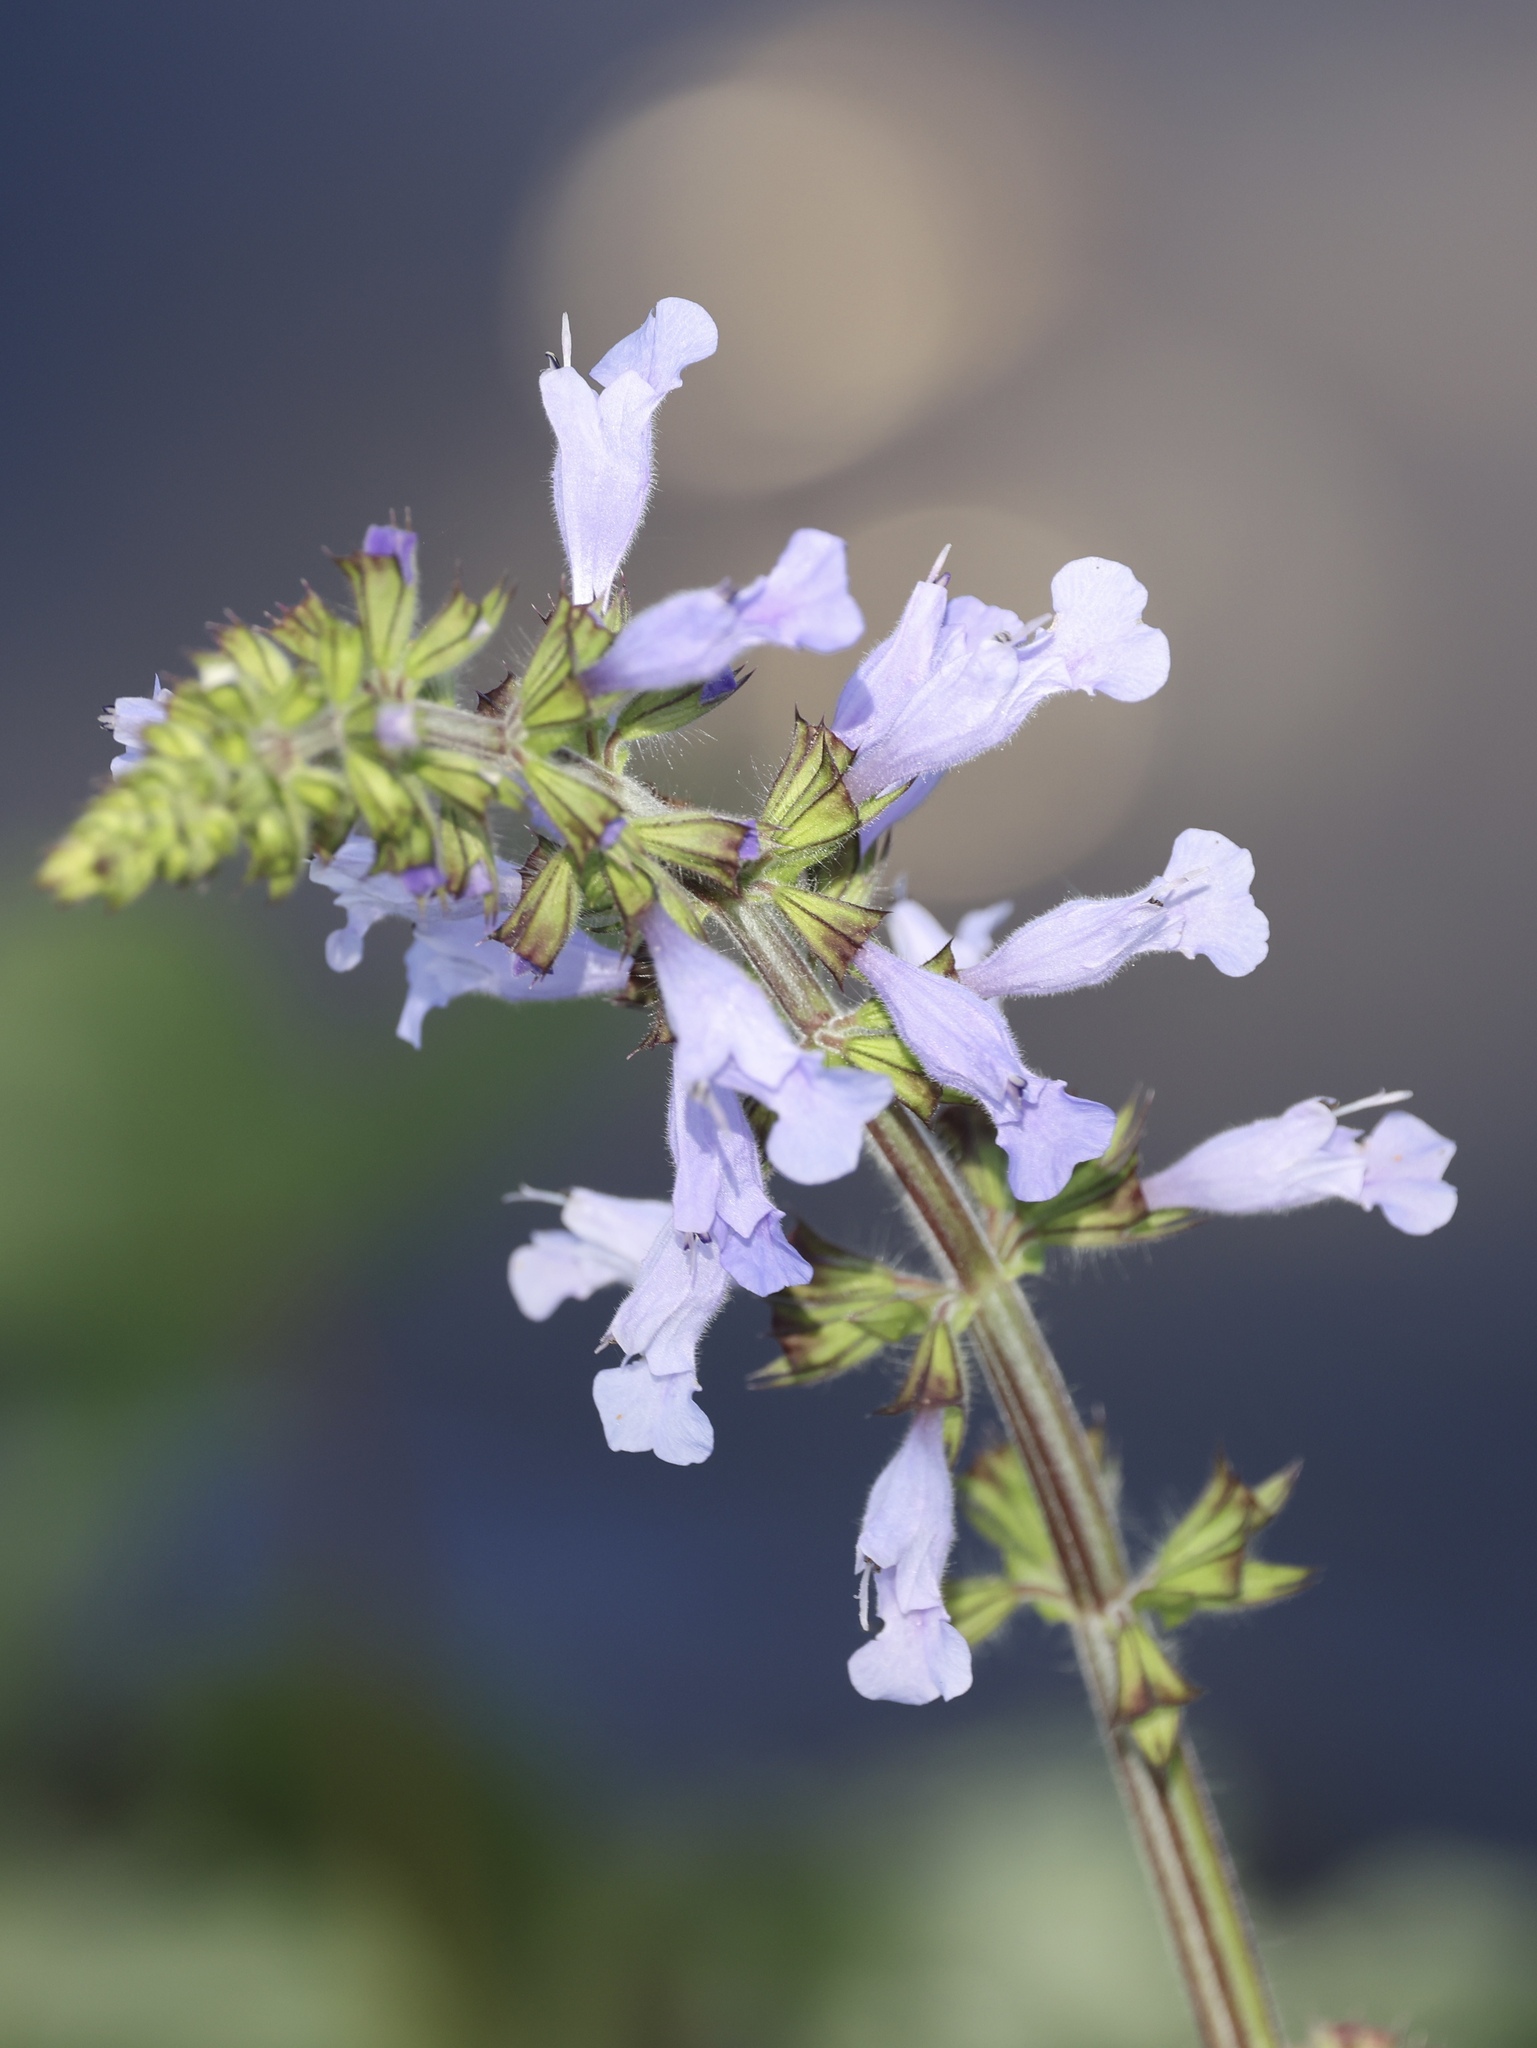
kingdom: Plantae
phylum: Tracheophyta
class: Magnoliopsida
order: Lamiales
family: Lamiaceae
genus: Salvia
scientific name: Salvia lyrata
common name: Cancerweed
